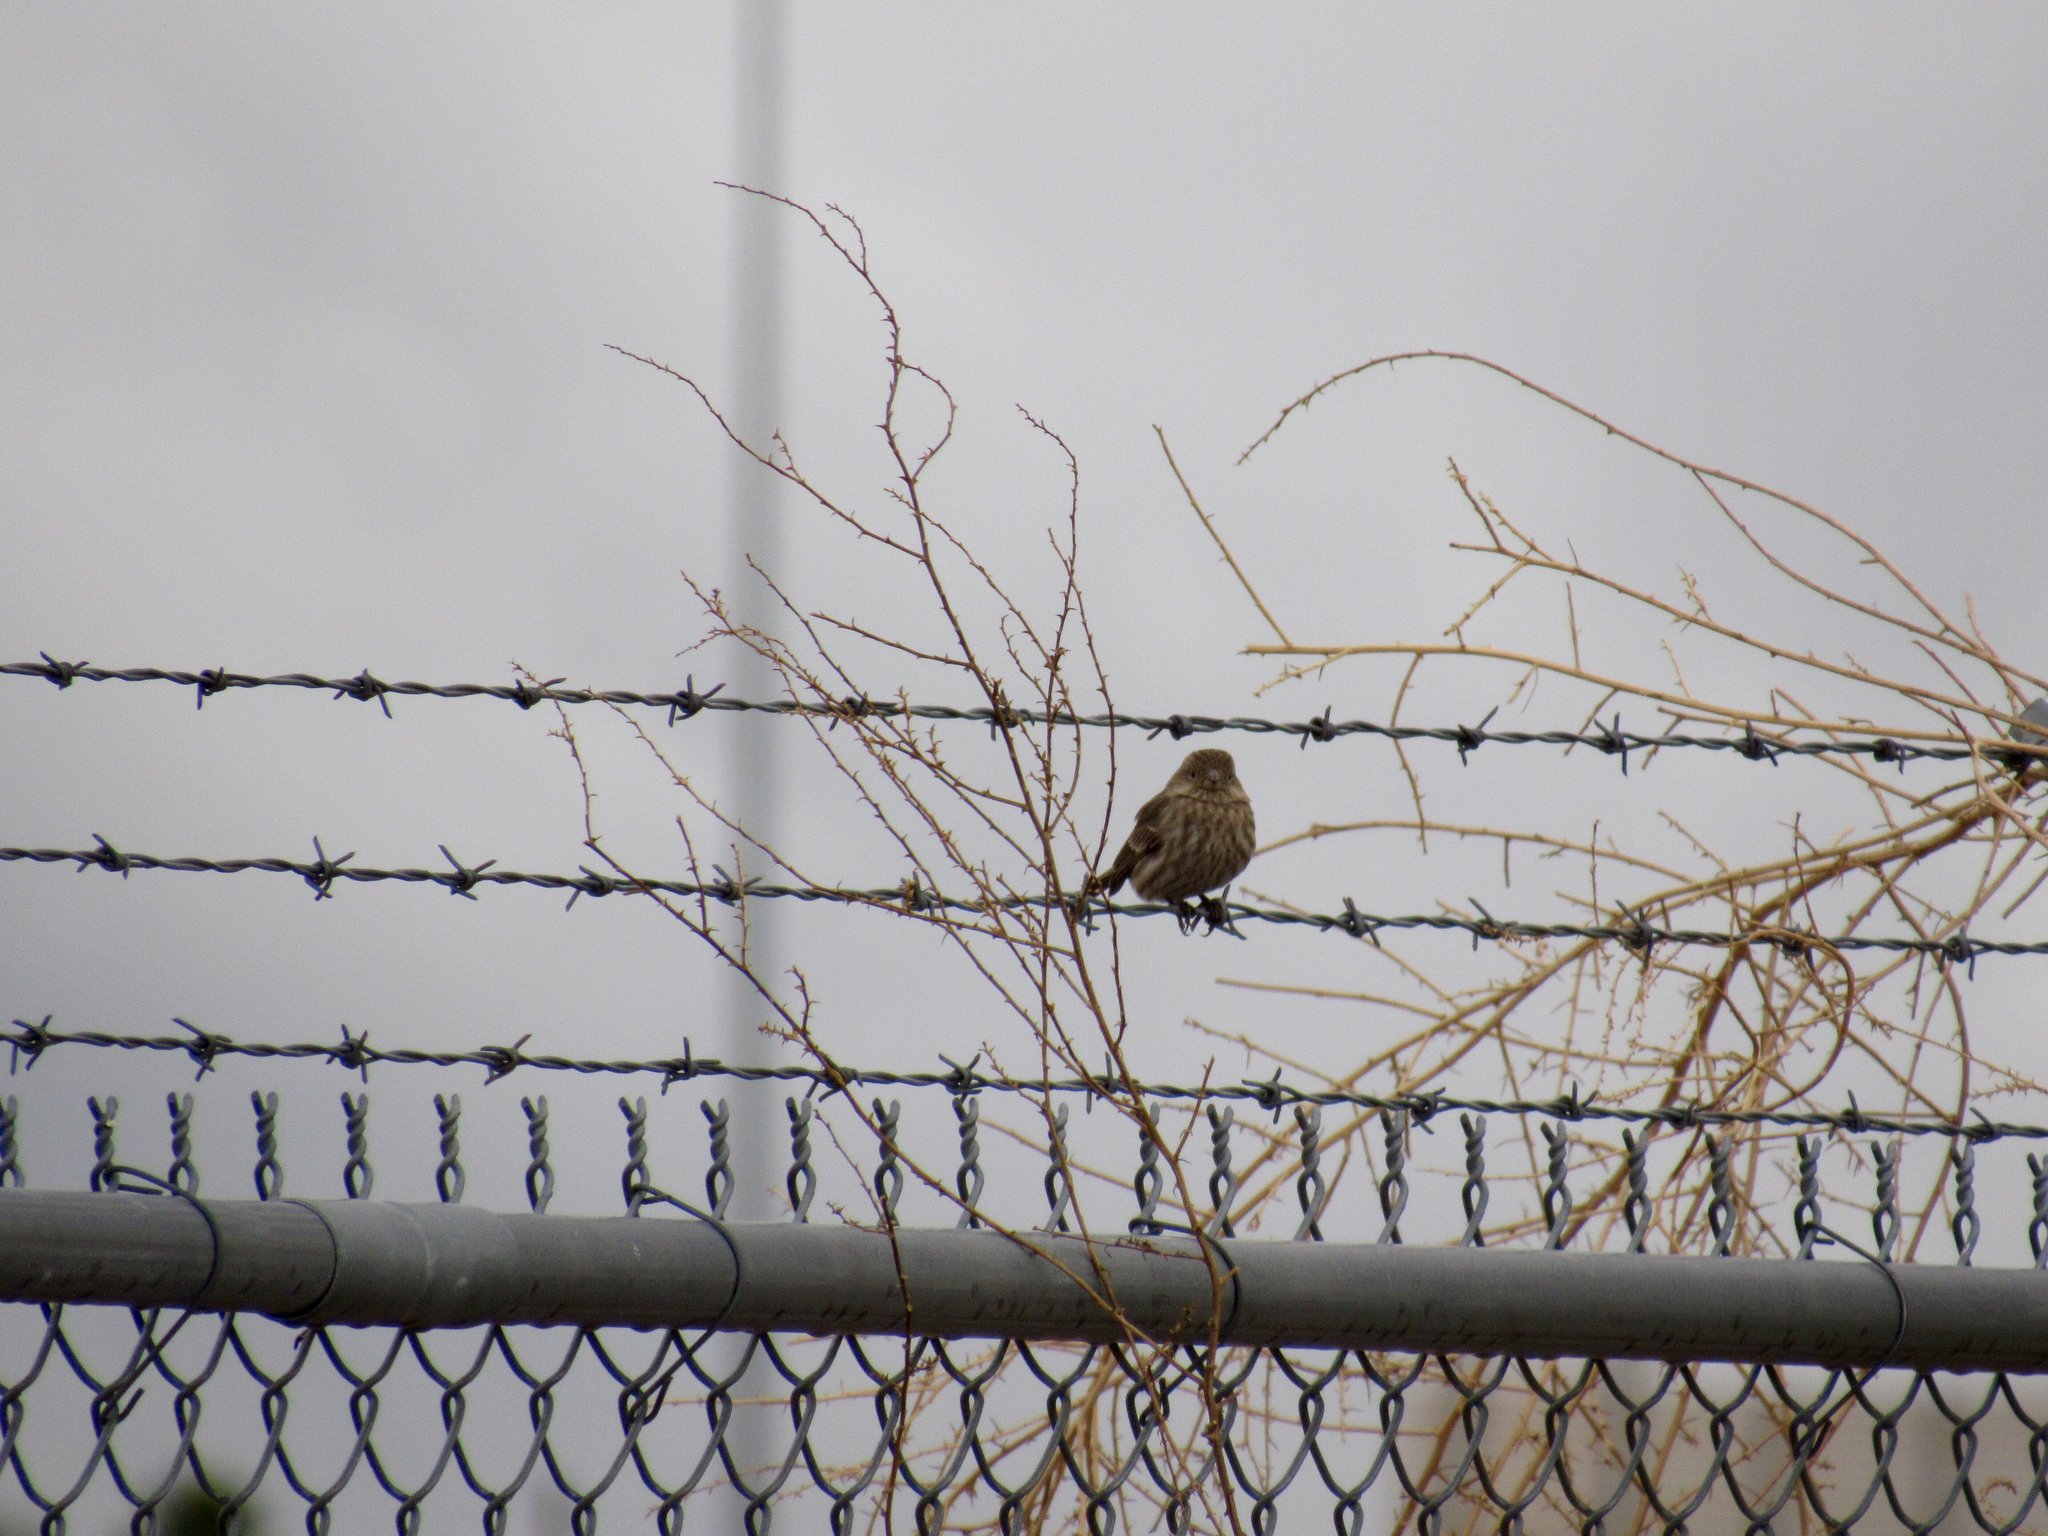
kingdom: Animalia
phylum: Chordata
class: Aves
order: Passeriformes
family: Fringillidae
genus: Haemorhous
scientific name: Haemorhous mexicanus
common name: House finch
